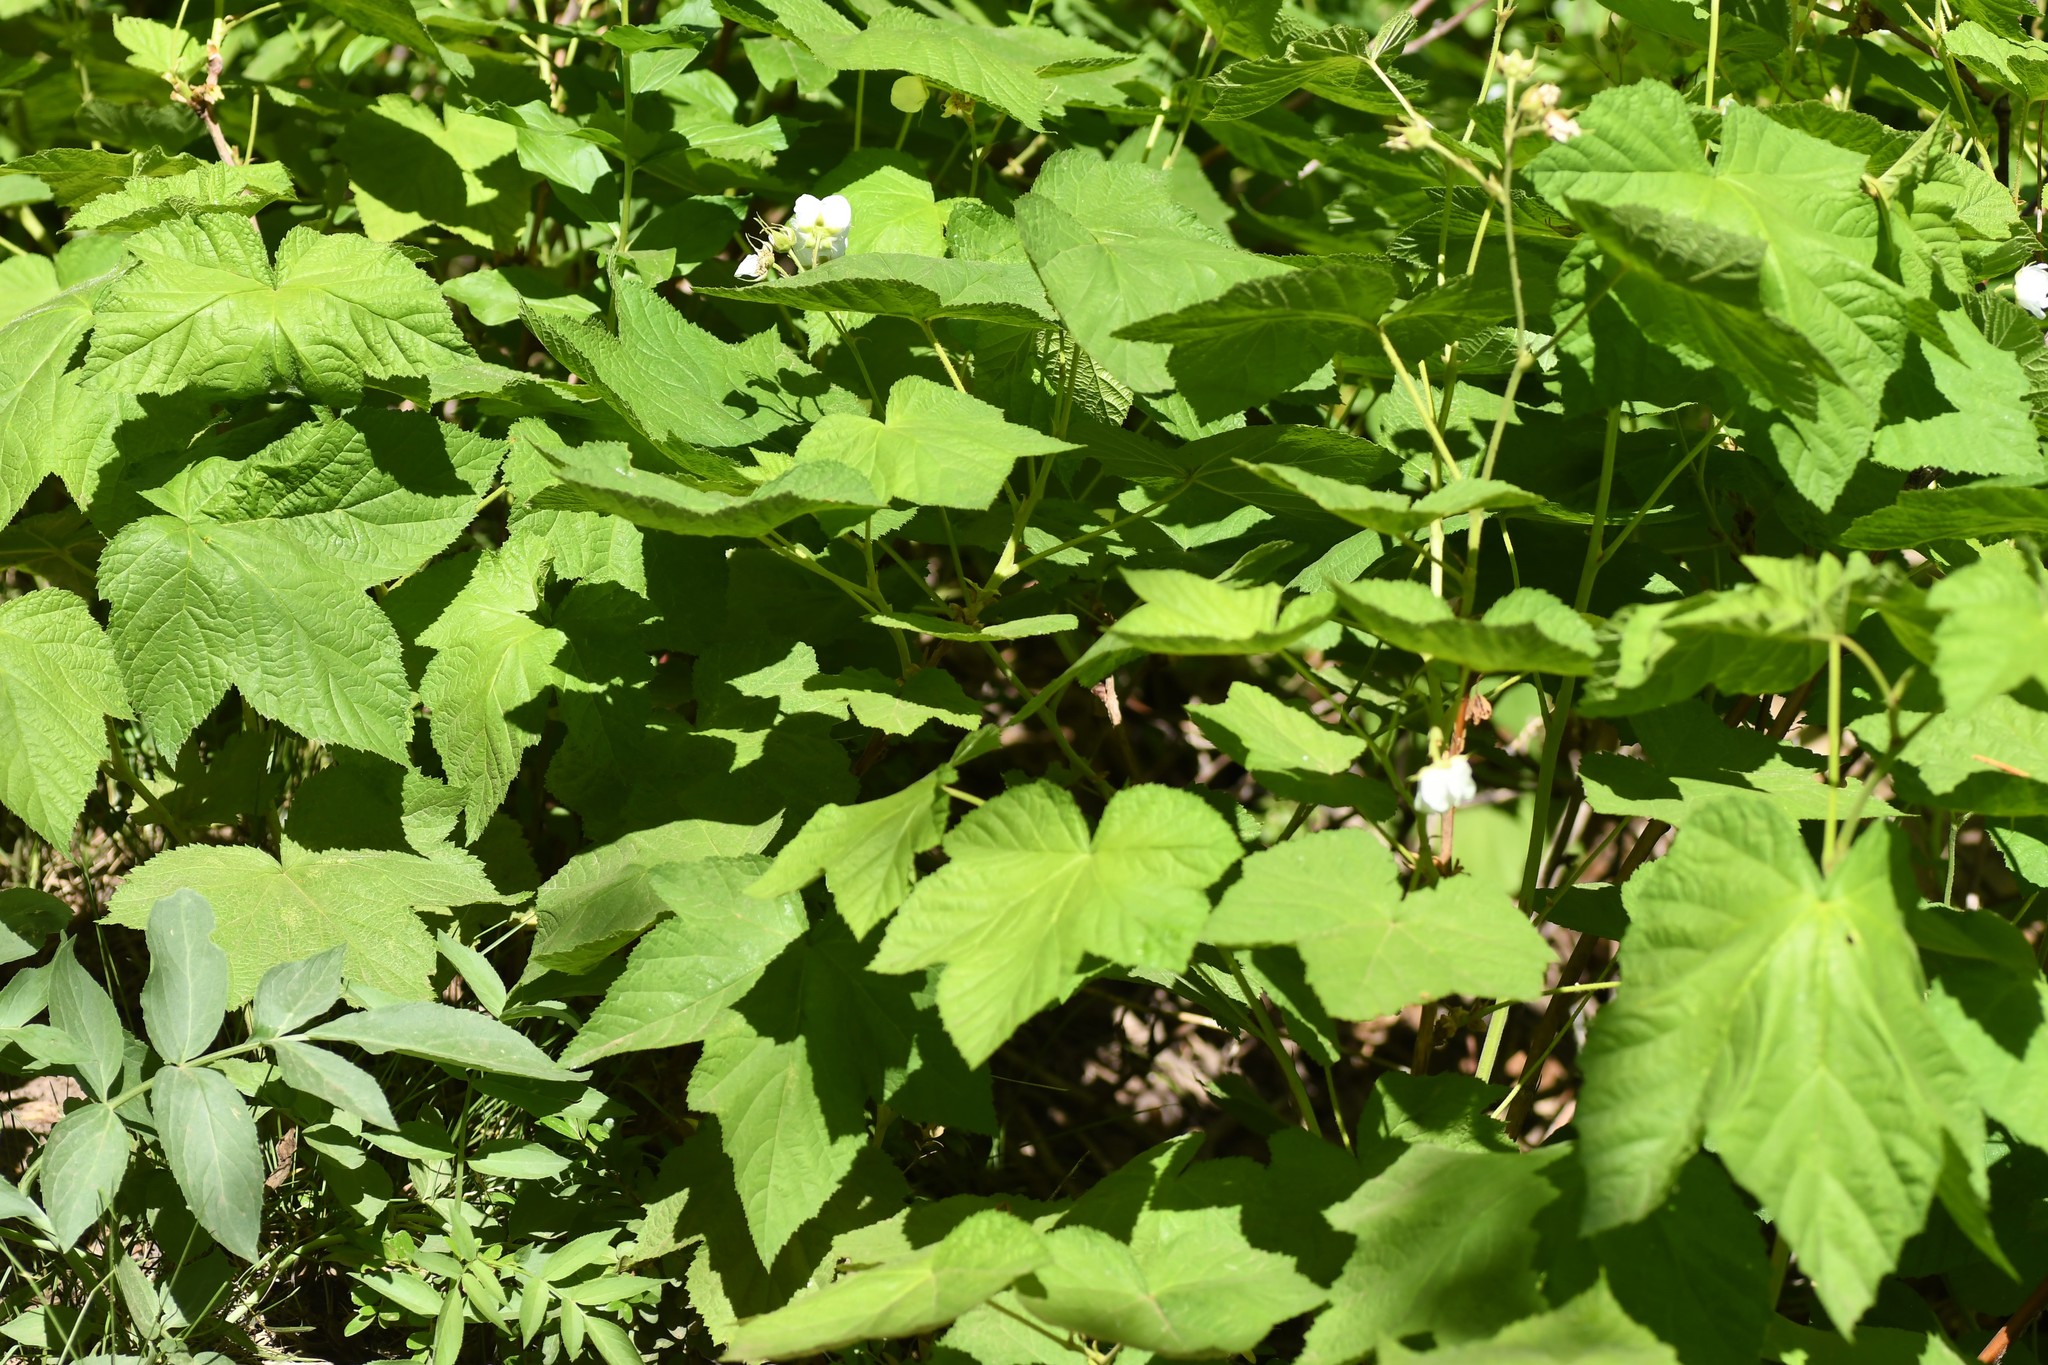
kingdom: Plantae
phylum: Tracheophyta
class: Magnoliopsida
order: Rosales
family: Rosaceae
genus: Rubus
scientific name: Rubus parviflorus
